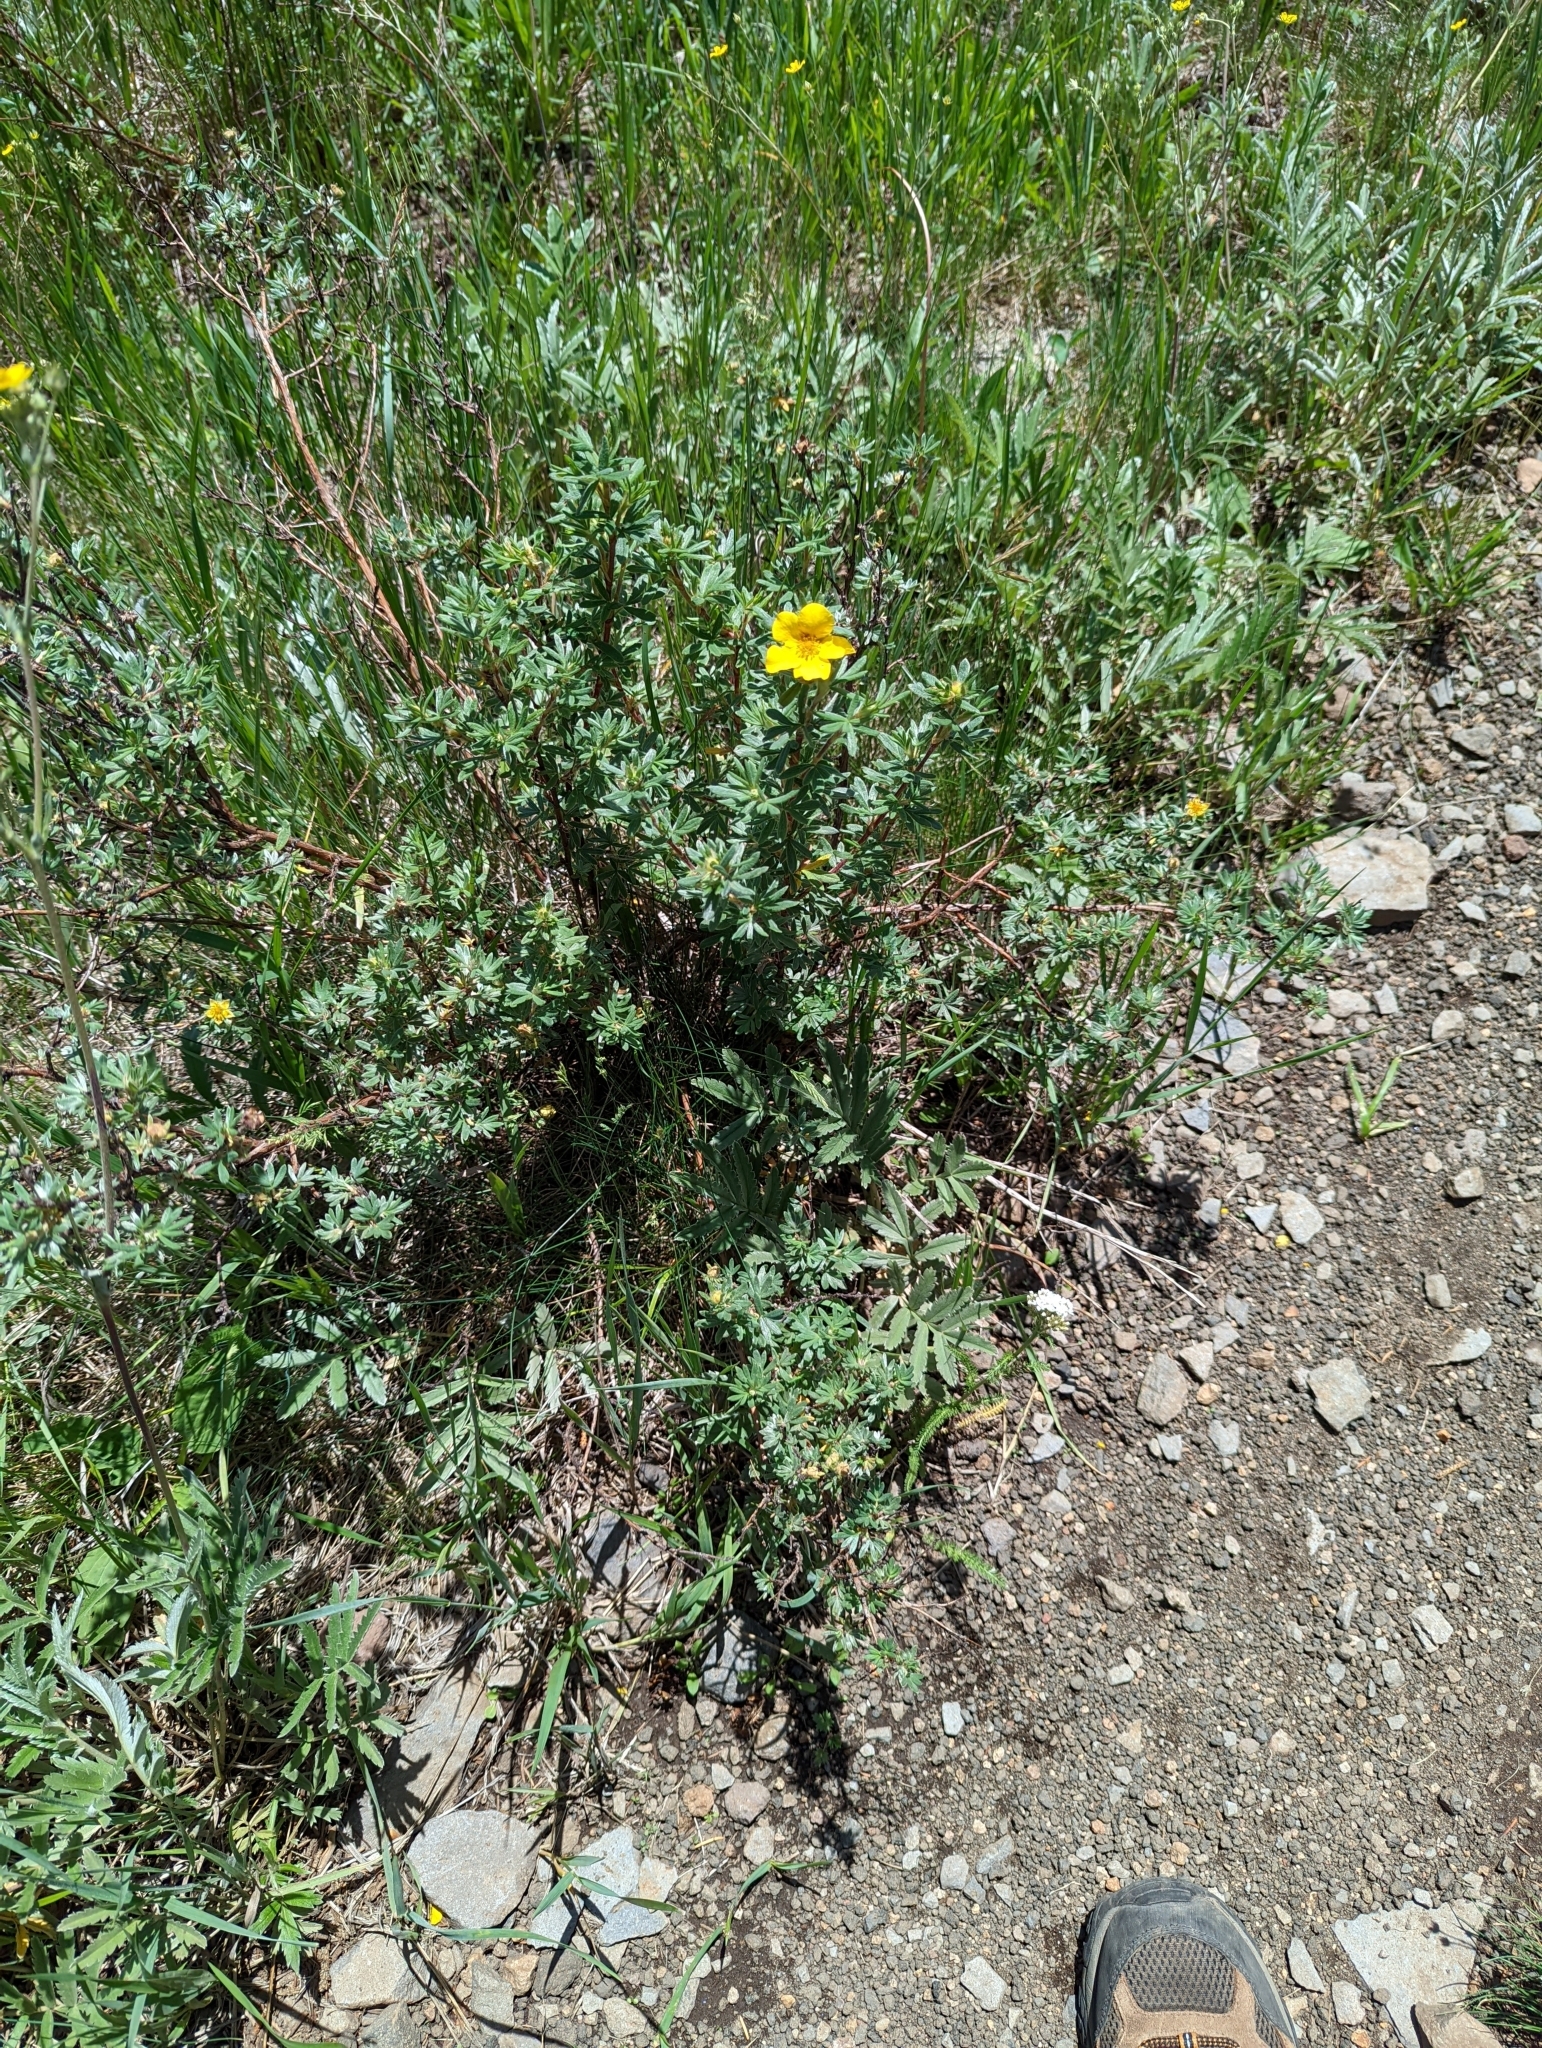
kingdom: Plantae
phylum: Tracheophyta
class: Magnoliopsida
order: Rosales
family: Rosaceae
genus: Dasiphora
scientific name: Dasiphora fruticosa
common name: Shrubby cinquefoil
